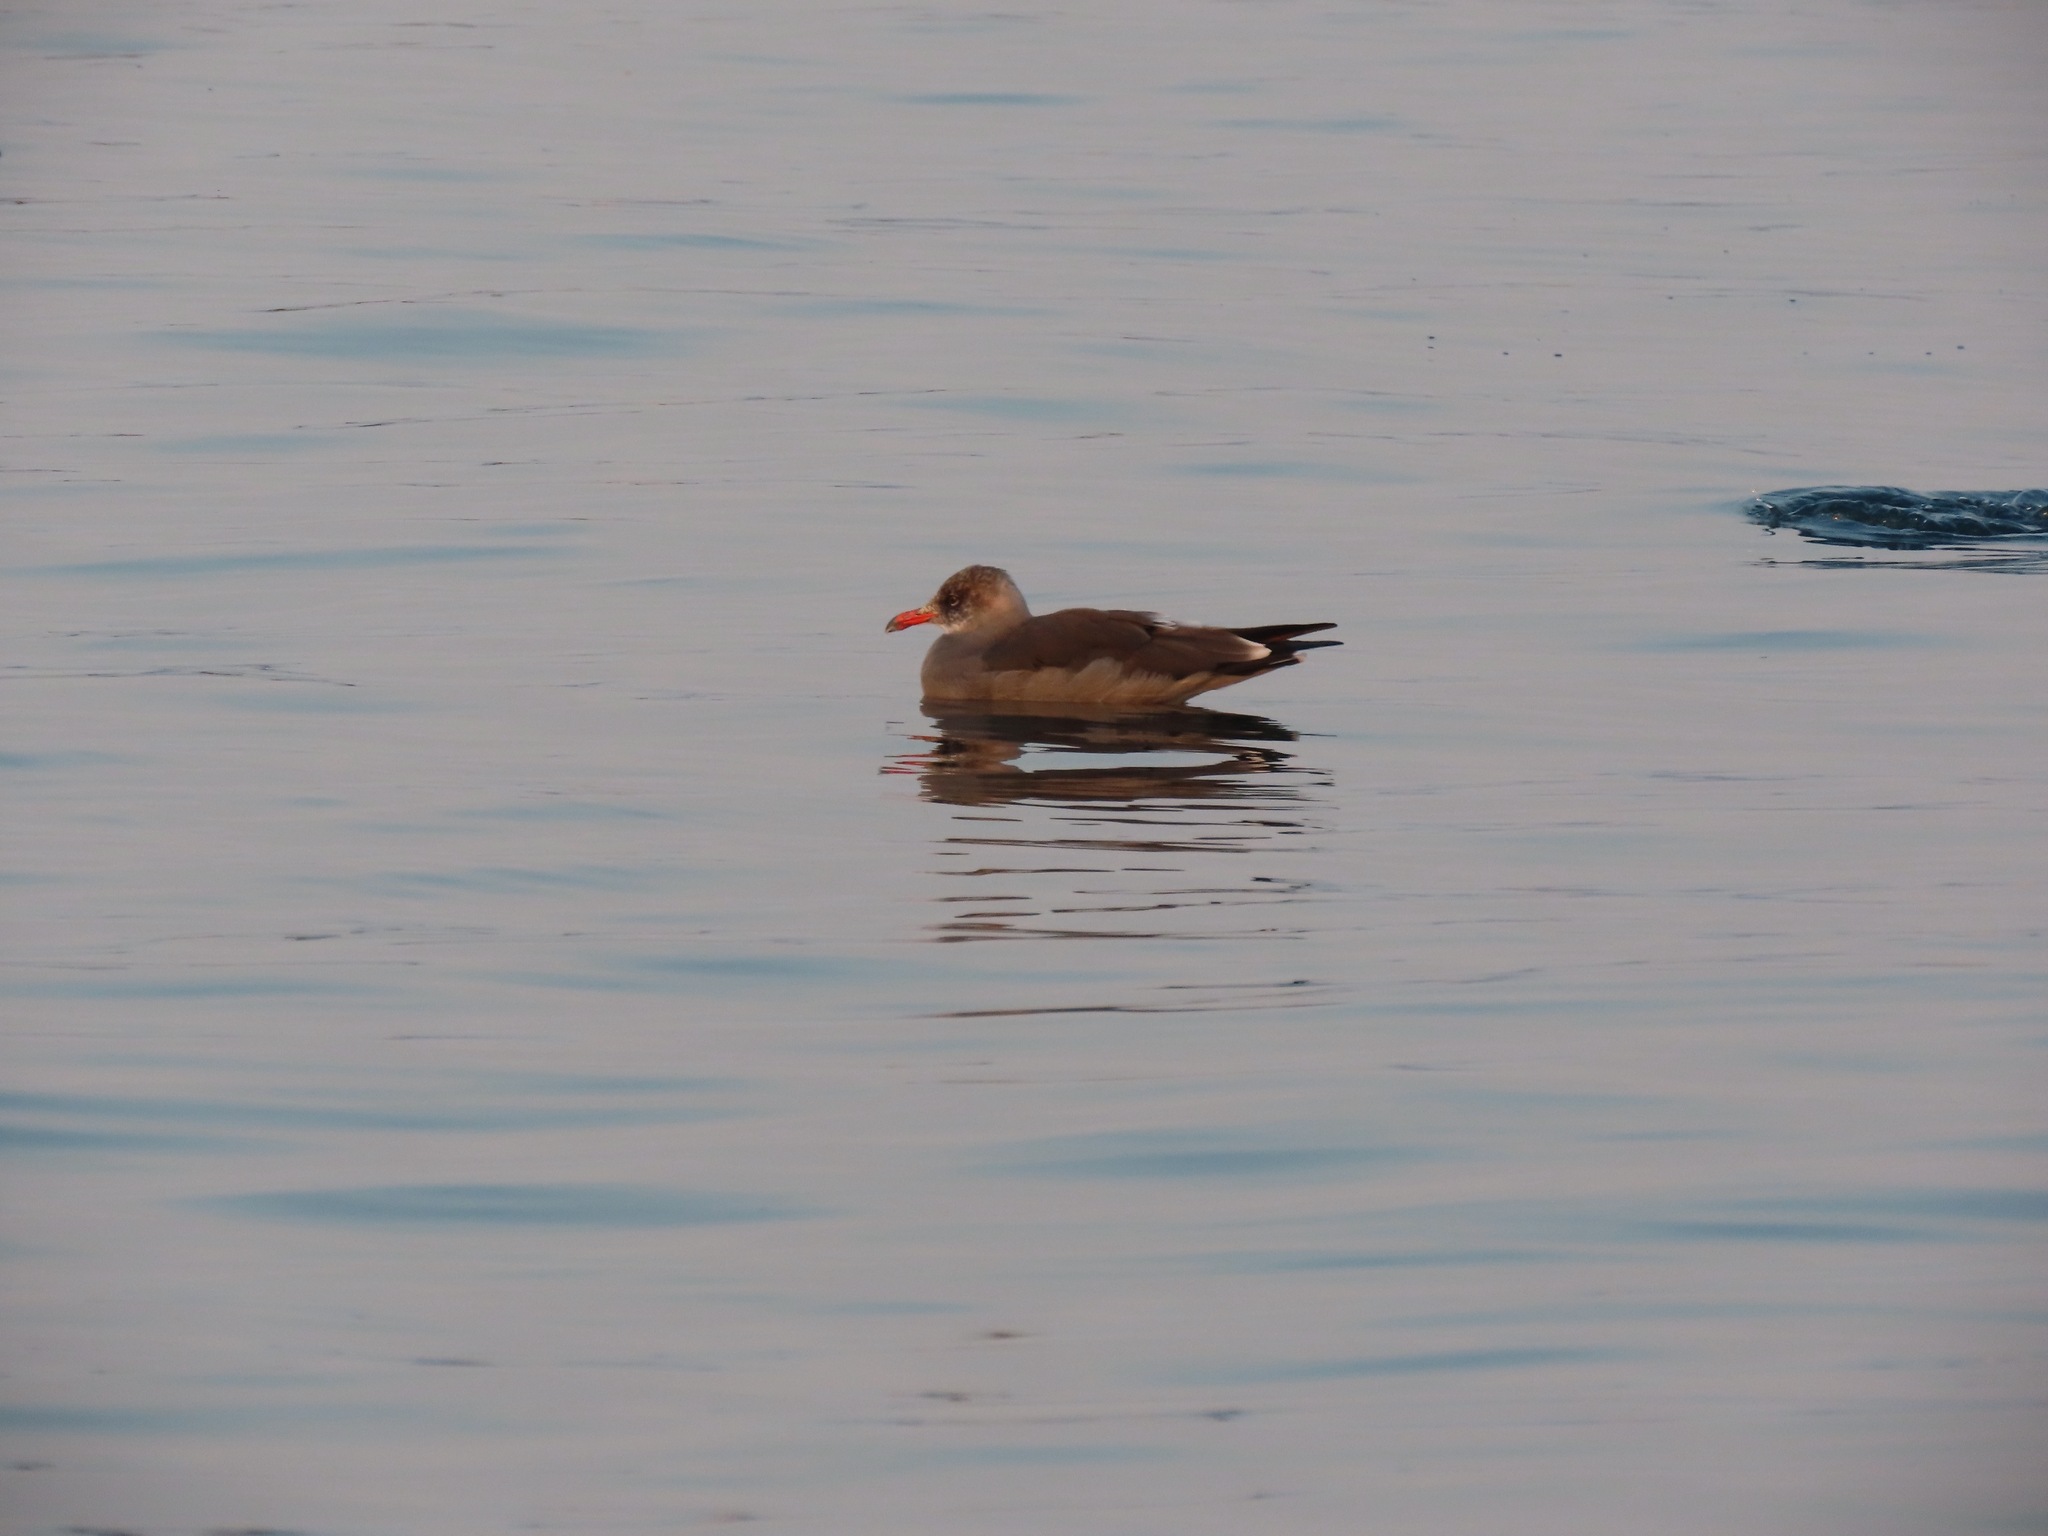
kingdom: Animalia
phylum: Chordata
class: Aves
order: Charadriiformes
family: Laridae
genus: Larus
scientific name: Larus heermanni
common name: Heermann's gull
